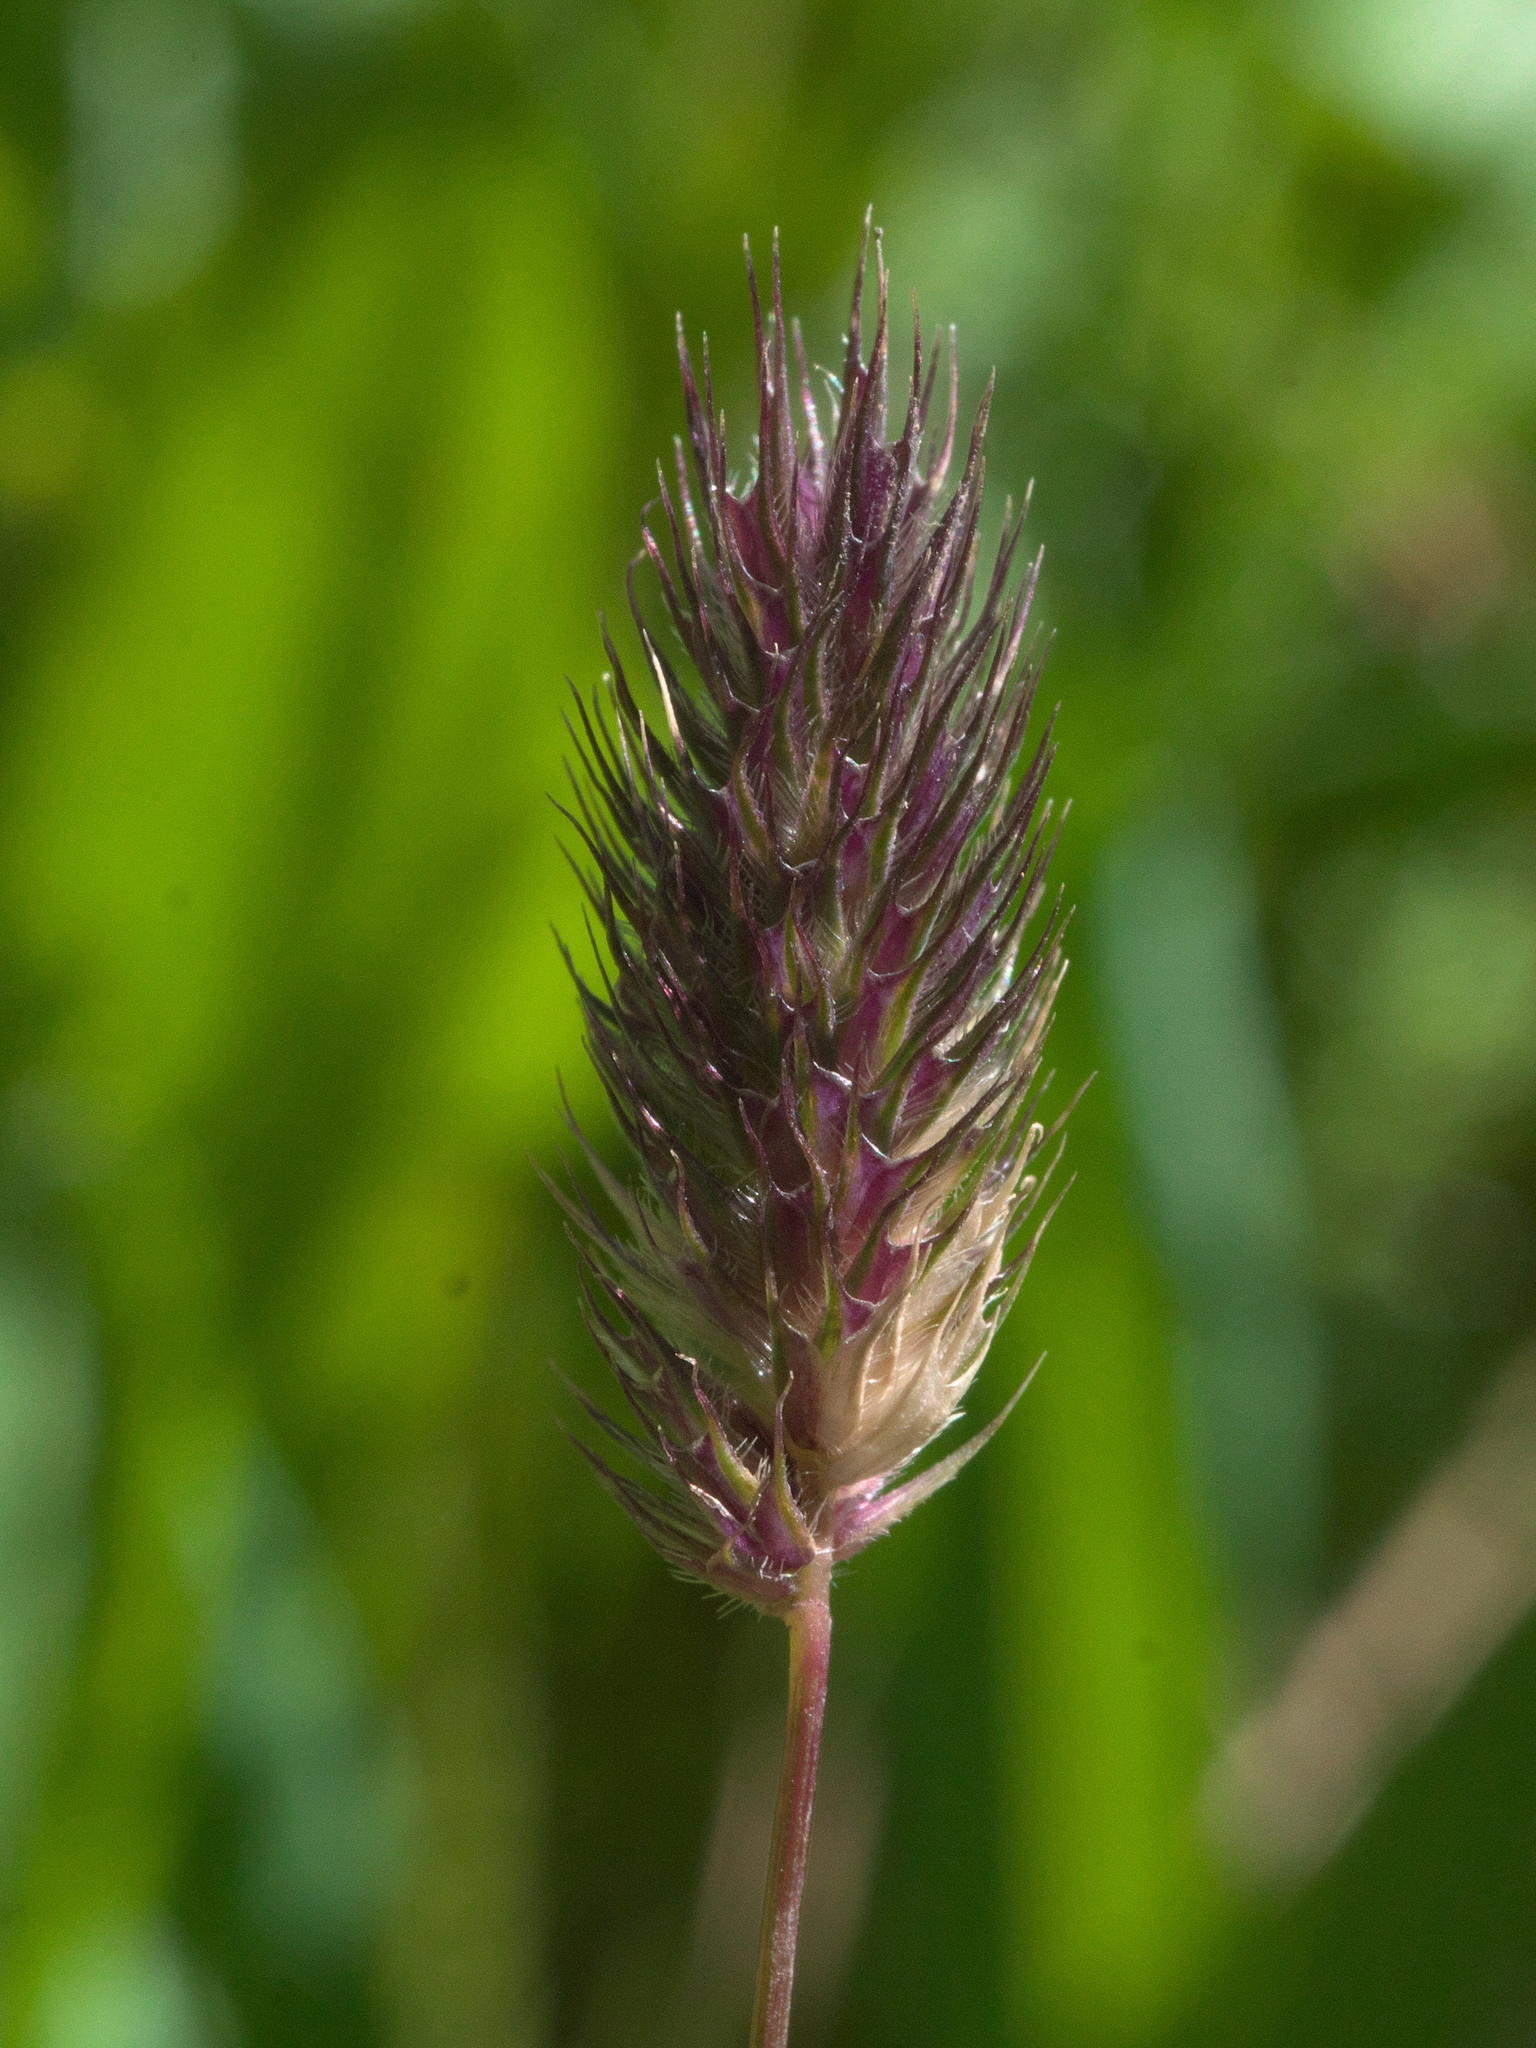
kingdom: Plantae
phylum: Tracheophyta
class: Liliopsida
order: Poales
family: Poaceae
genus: Phleum
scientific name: Phleum alpinum
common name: Alpine cat's-tail
